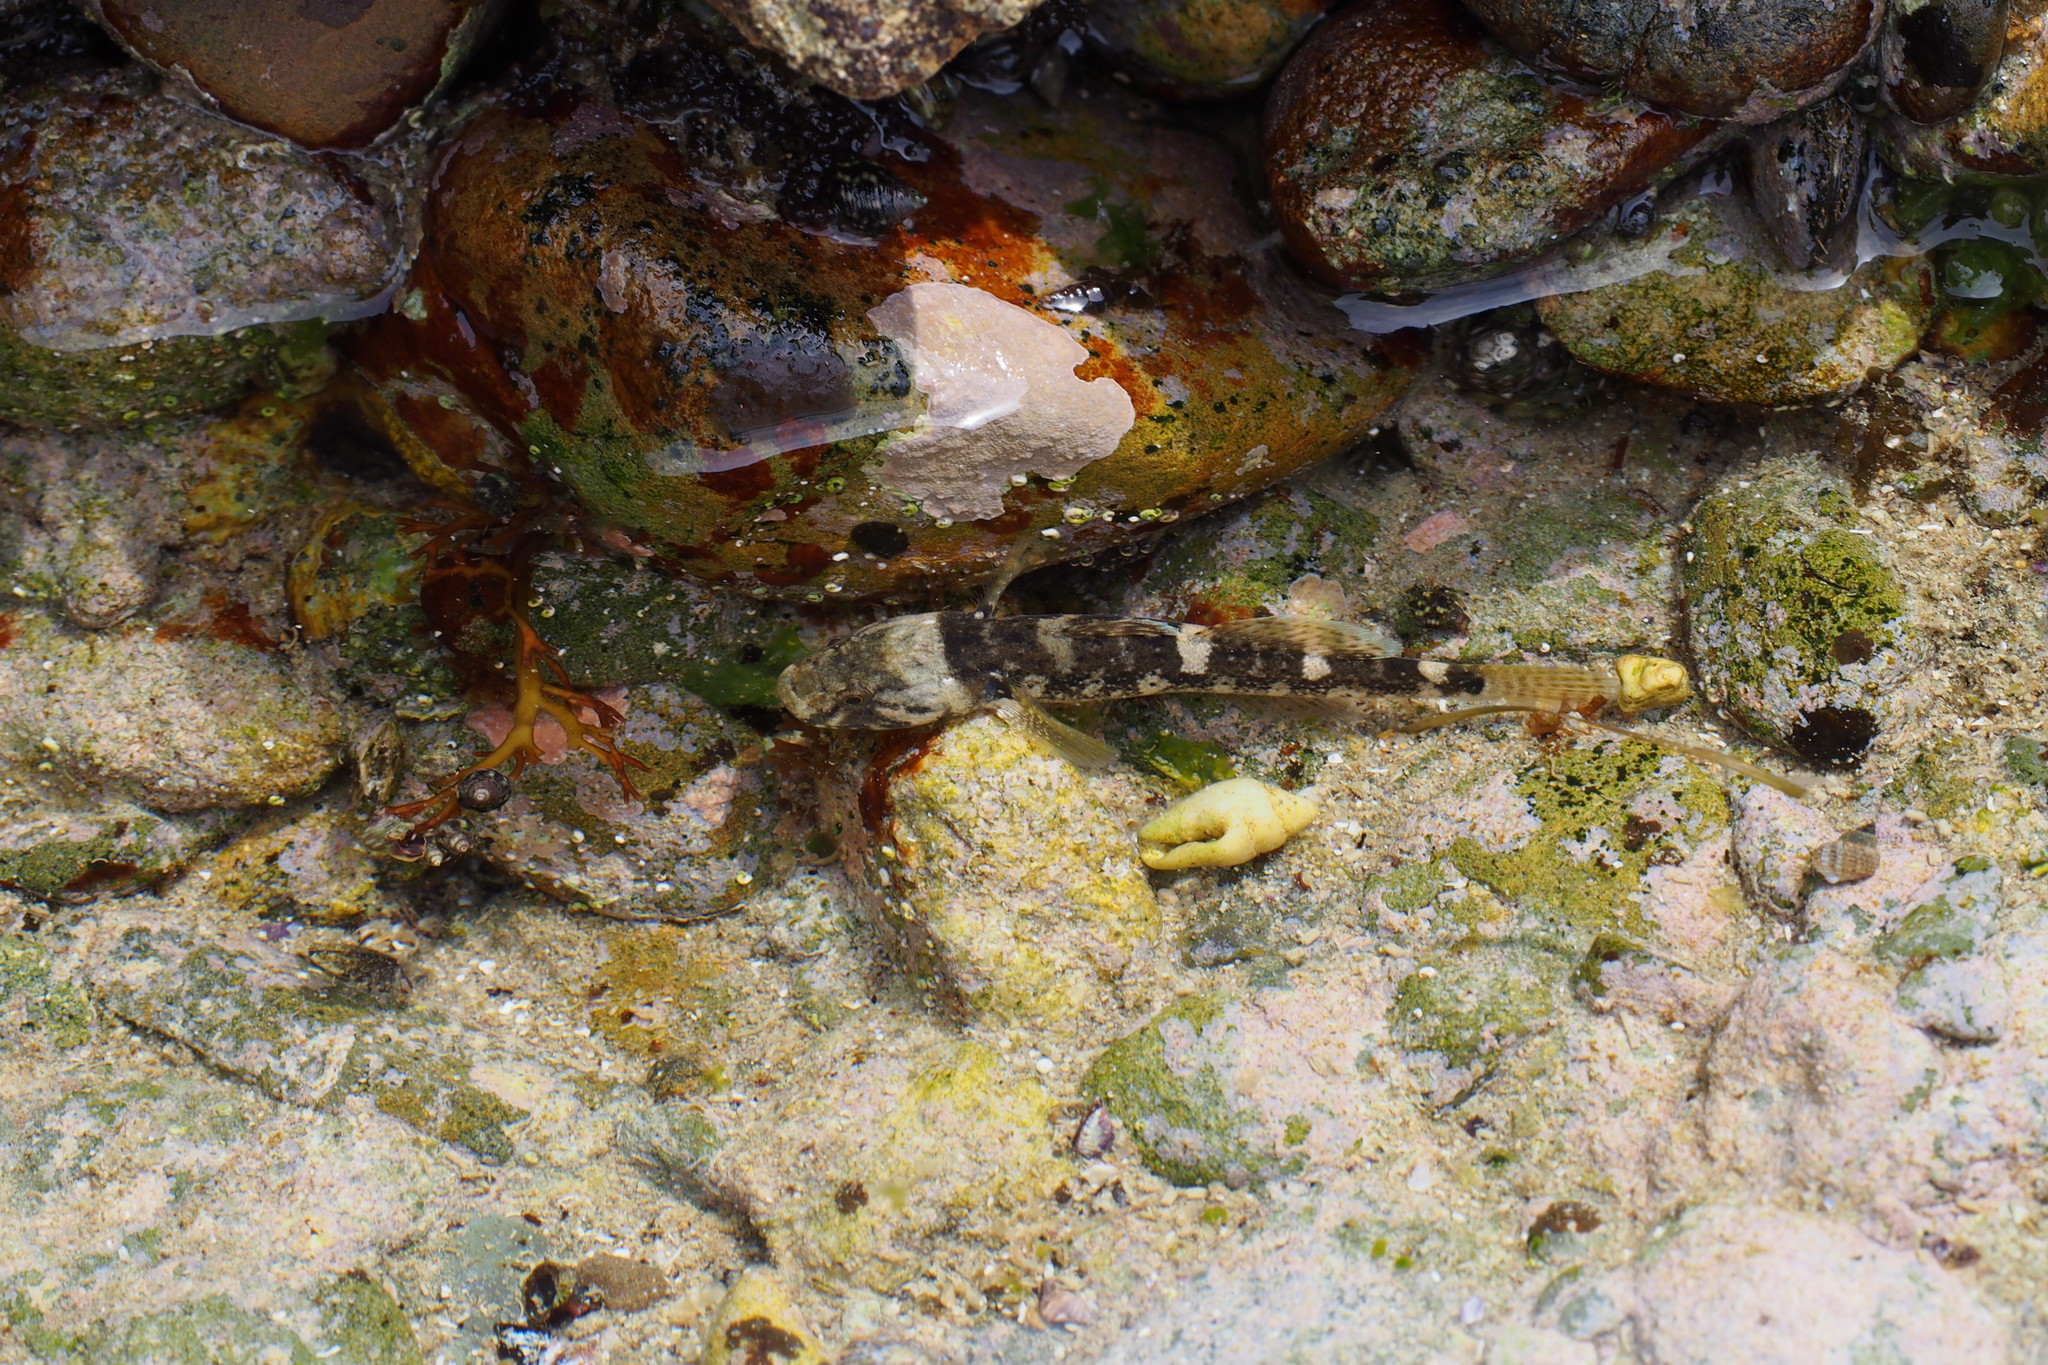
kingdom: Animalia
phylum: Chordata
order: Perciformes
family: Gobiidae
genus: Chaenogobius
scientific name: Chaenogobius annularis
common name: Forktongue goby
